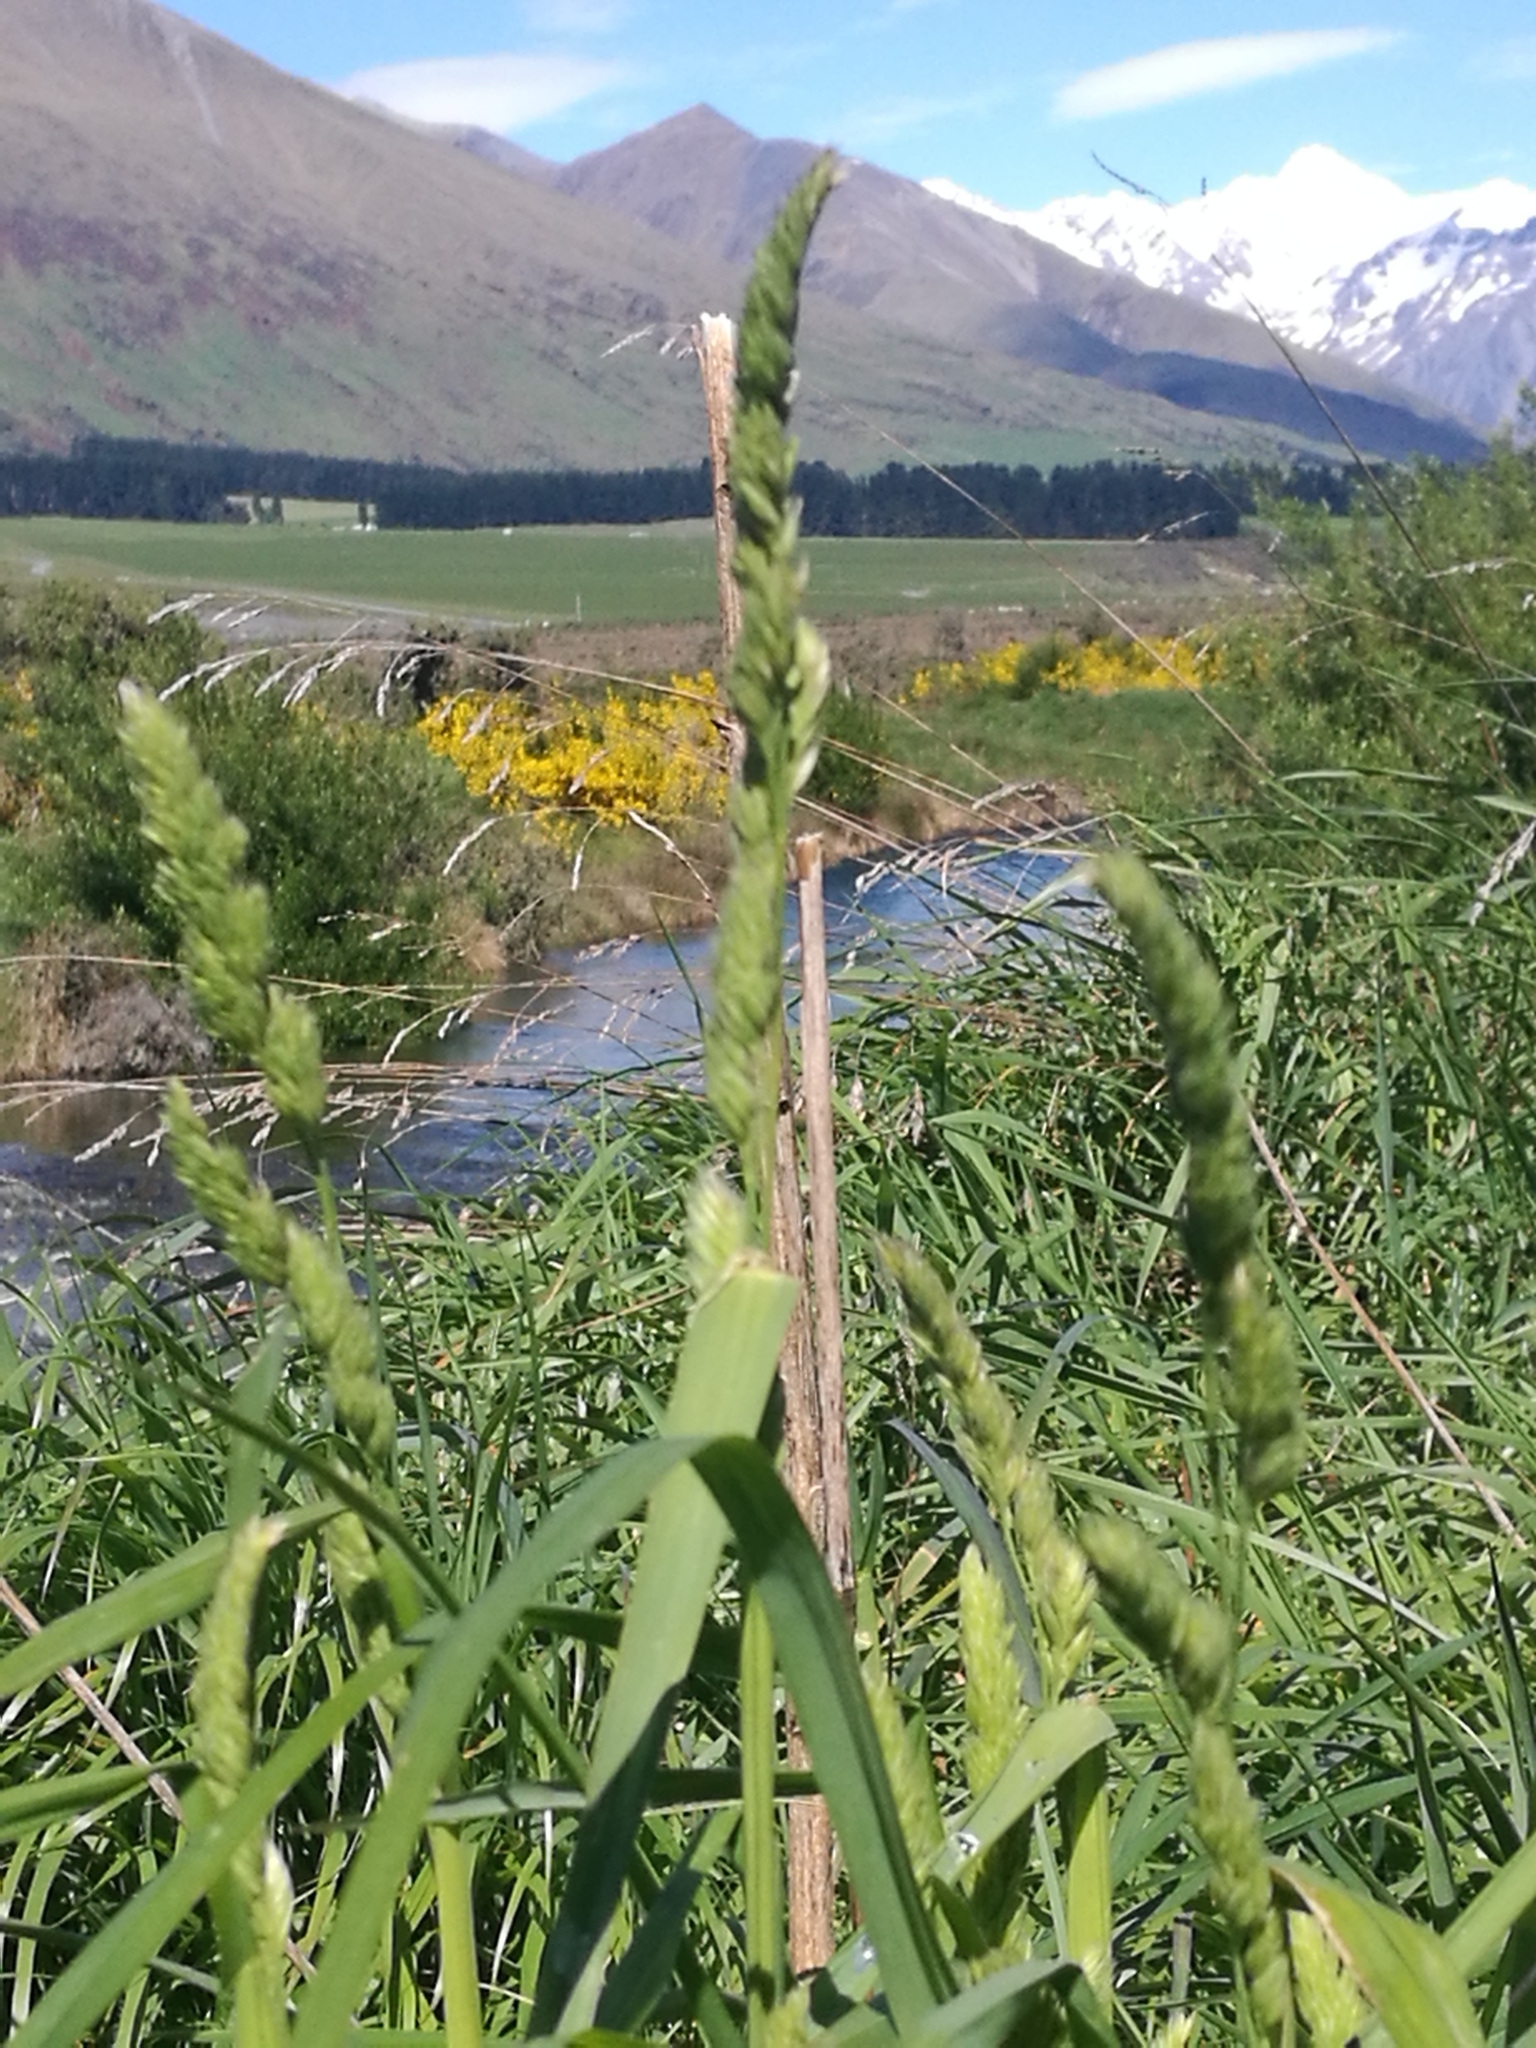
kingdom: Plantae
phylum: Tracheophyta
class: Liliopsida
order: Poales
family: Poaceae
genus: Dactylis
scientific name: Dactylis glomerata
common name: Orchardgrass
